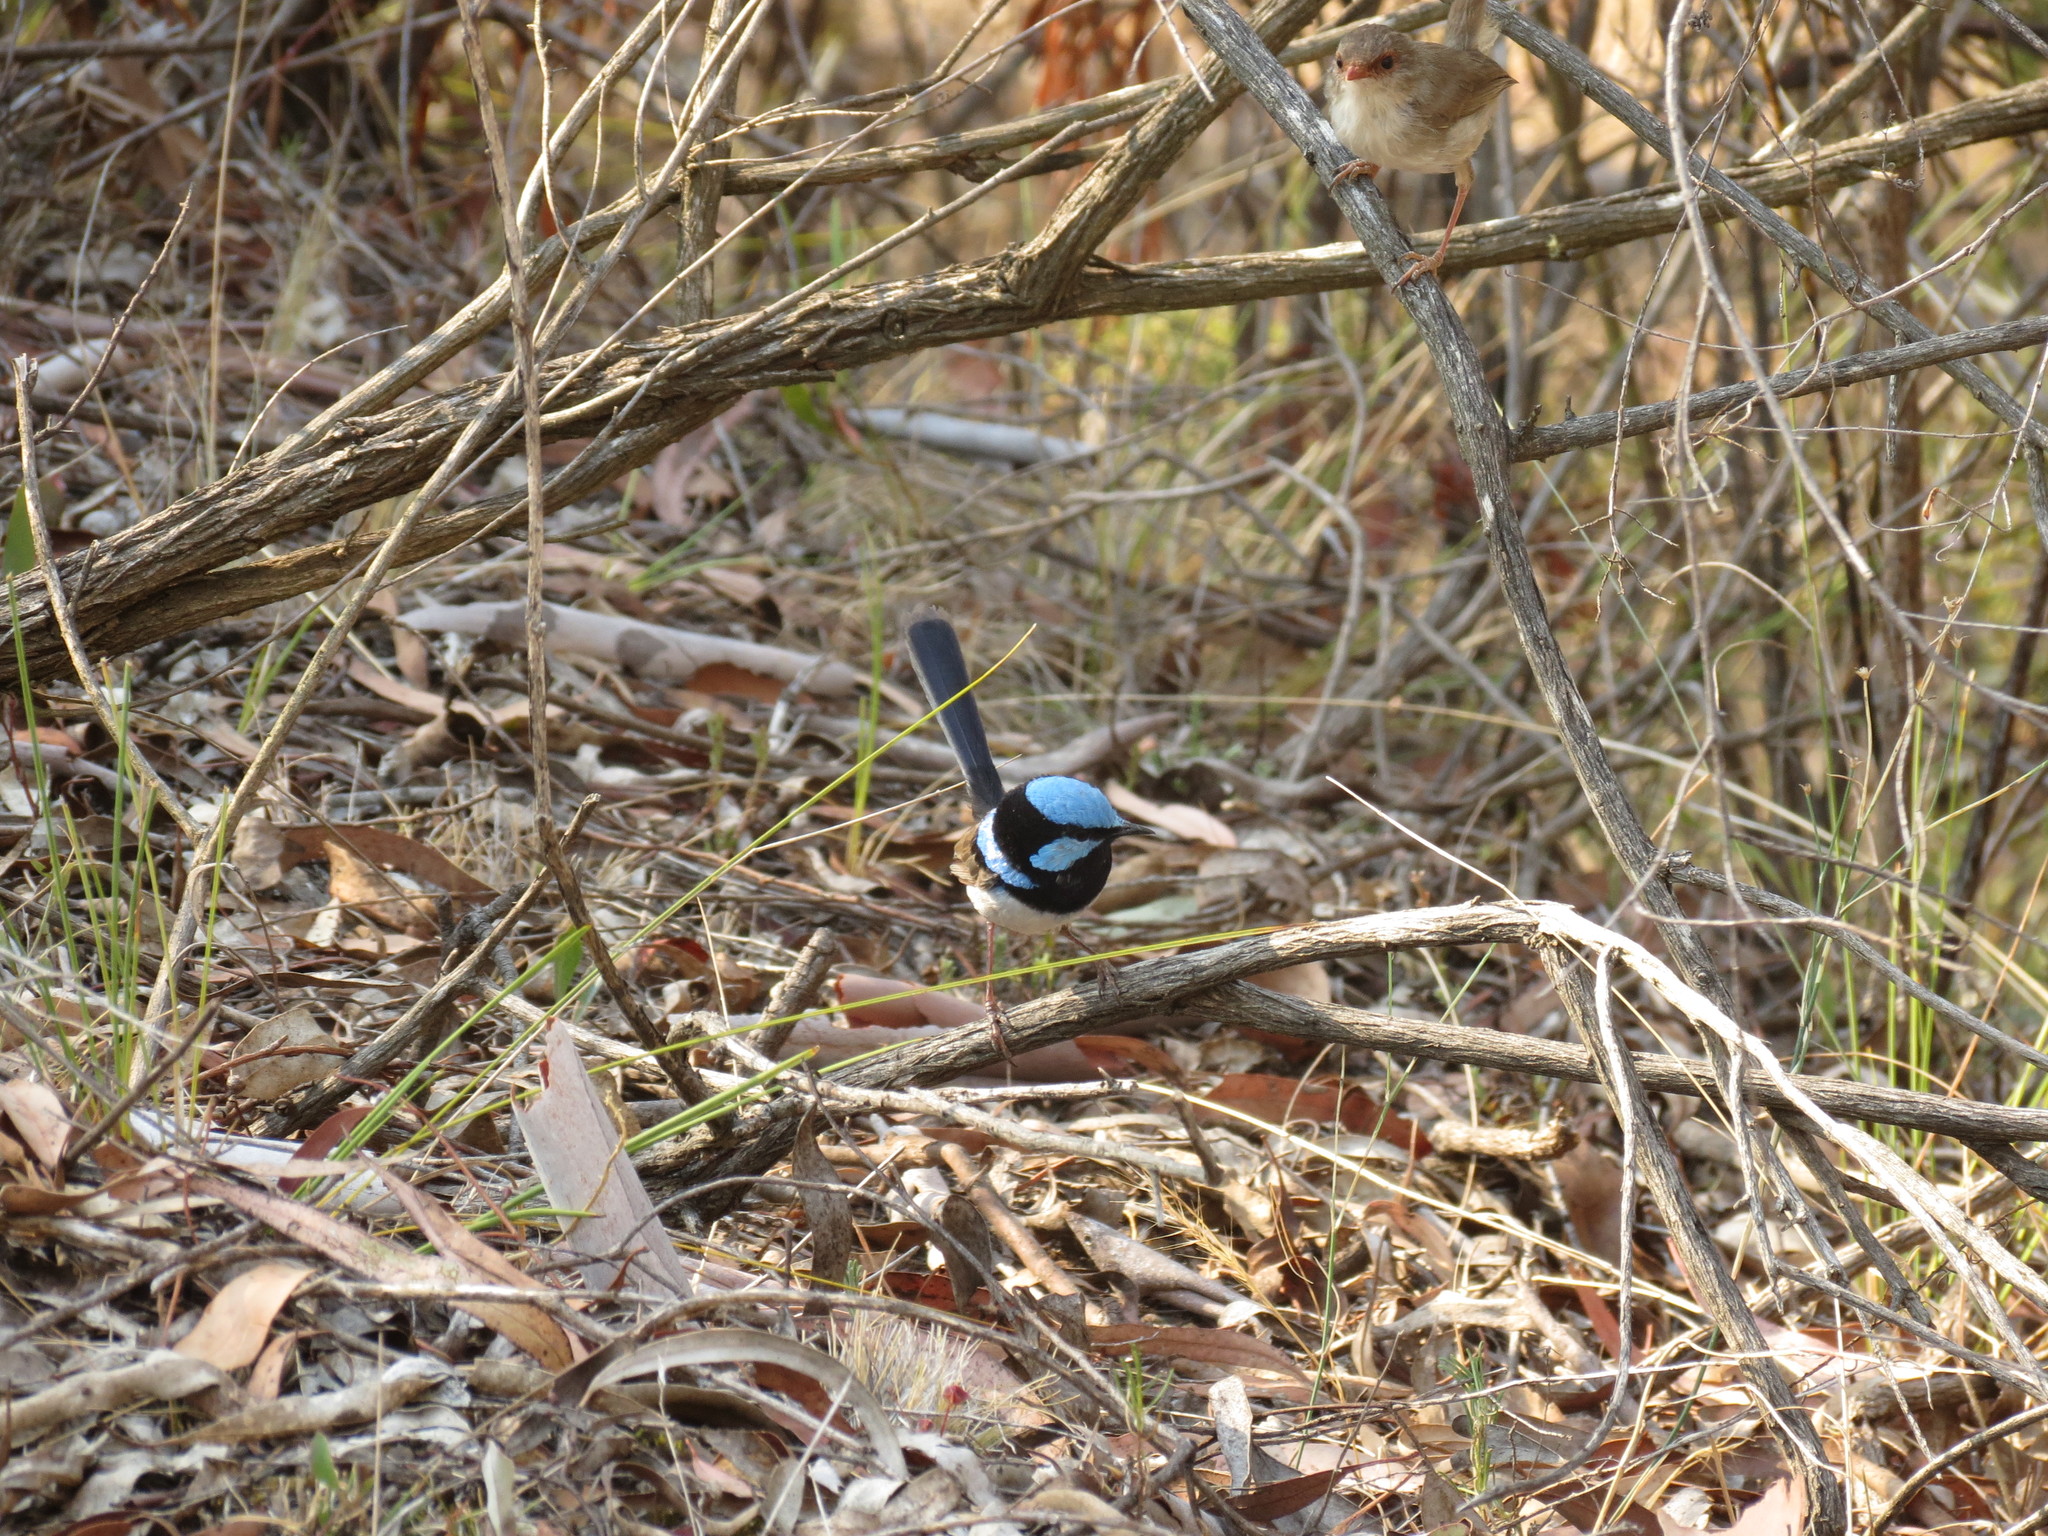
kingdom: Animalia
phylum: Chordata
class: Aves
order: Passeriformes
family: Maluridae
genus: Malurus
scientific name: Malurus cyaneus
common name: Superb fairywren
